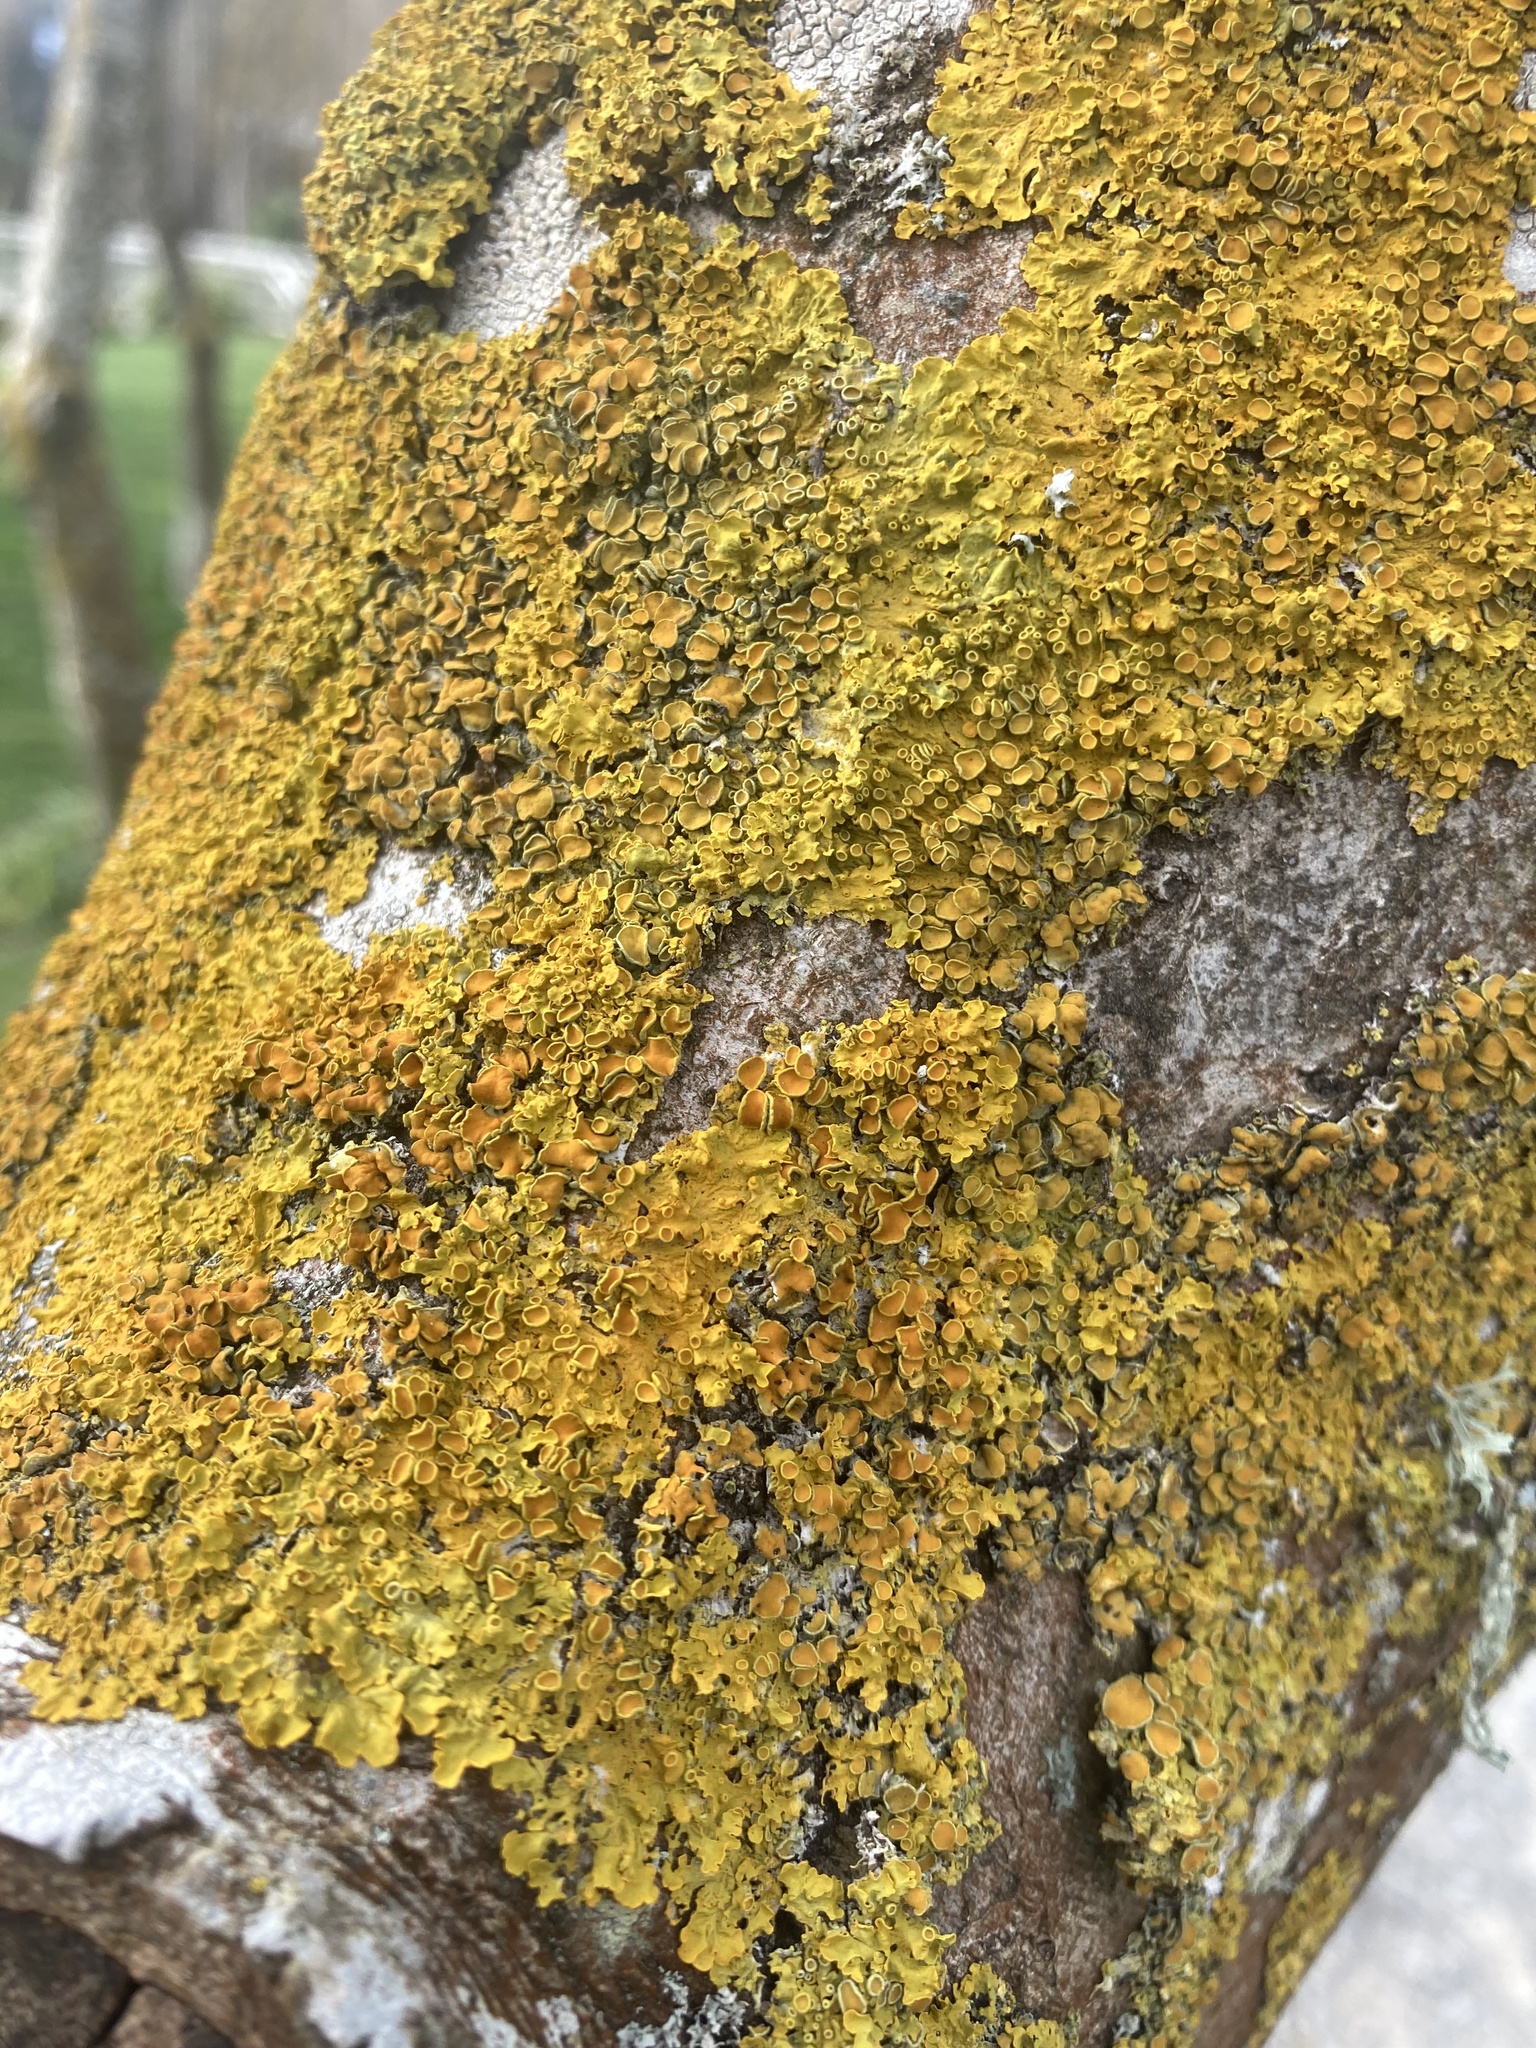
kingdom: Fungi
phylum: Ascomycota
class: Lecanoromycetes
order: Teloschistales
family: Teloschistaceae
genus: Xanthoria
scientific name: Xanthoria parietina
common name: Common orange lichen
